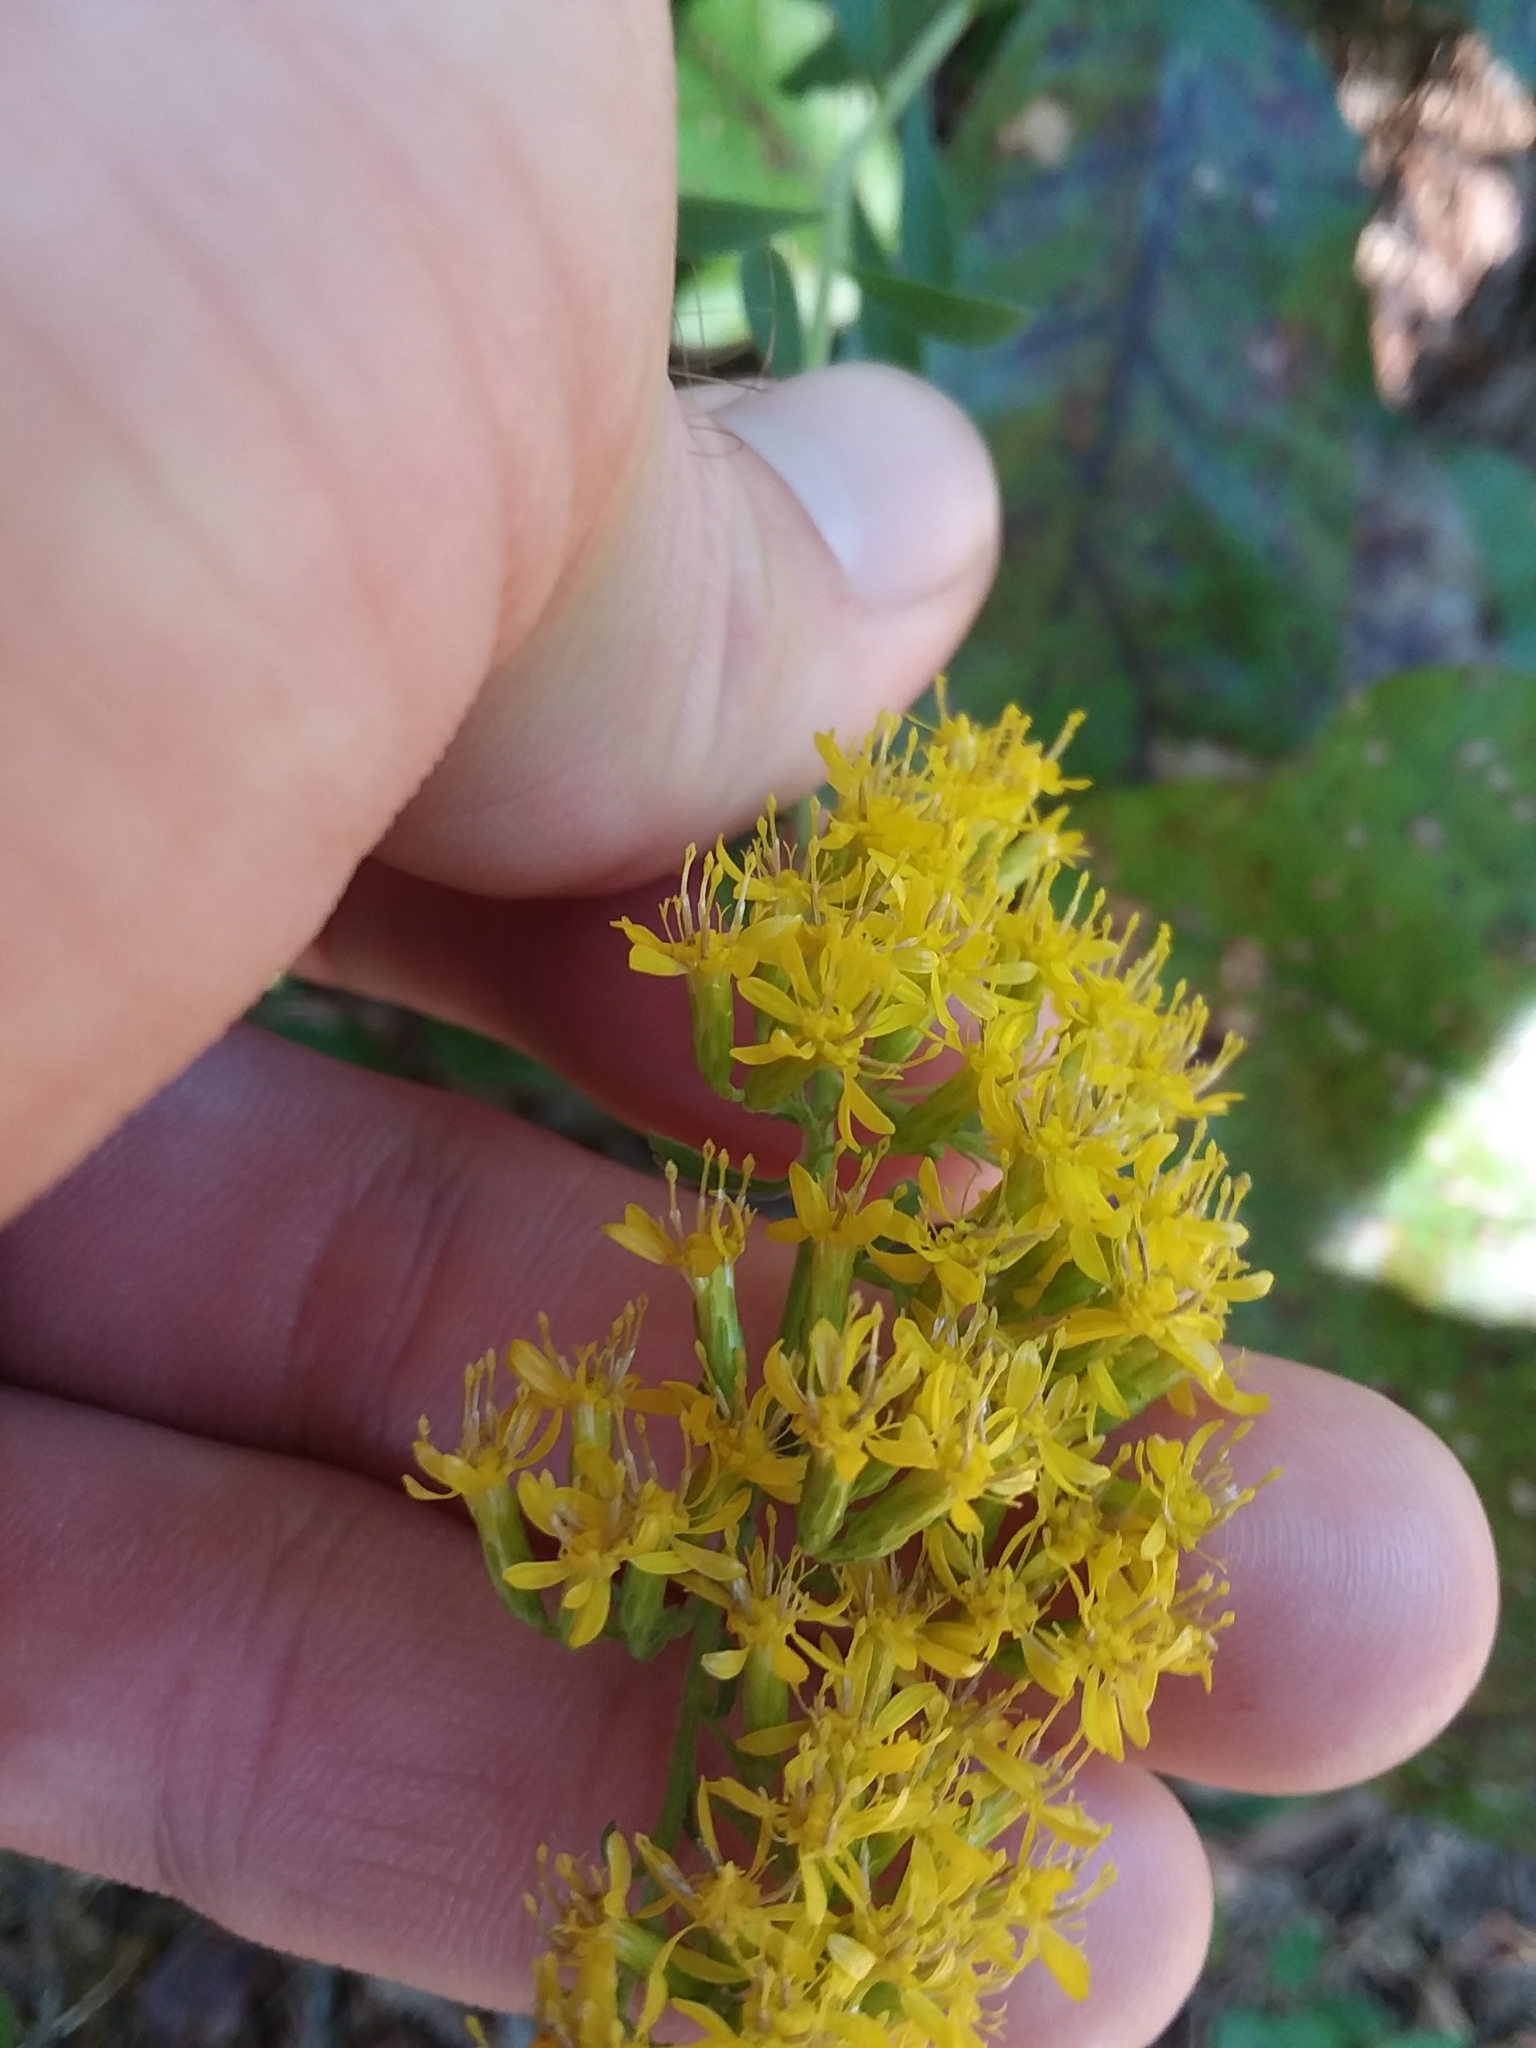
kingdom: Plantae
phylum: Tracheophyta
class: Magnoliopsida
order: Asterales
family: Asteraceae
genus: Solidago
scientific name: Solidago nemoralis
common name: Grey goldenrod
